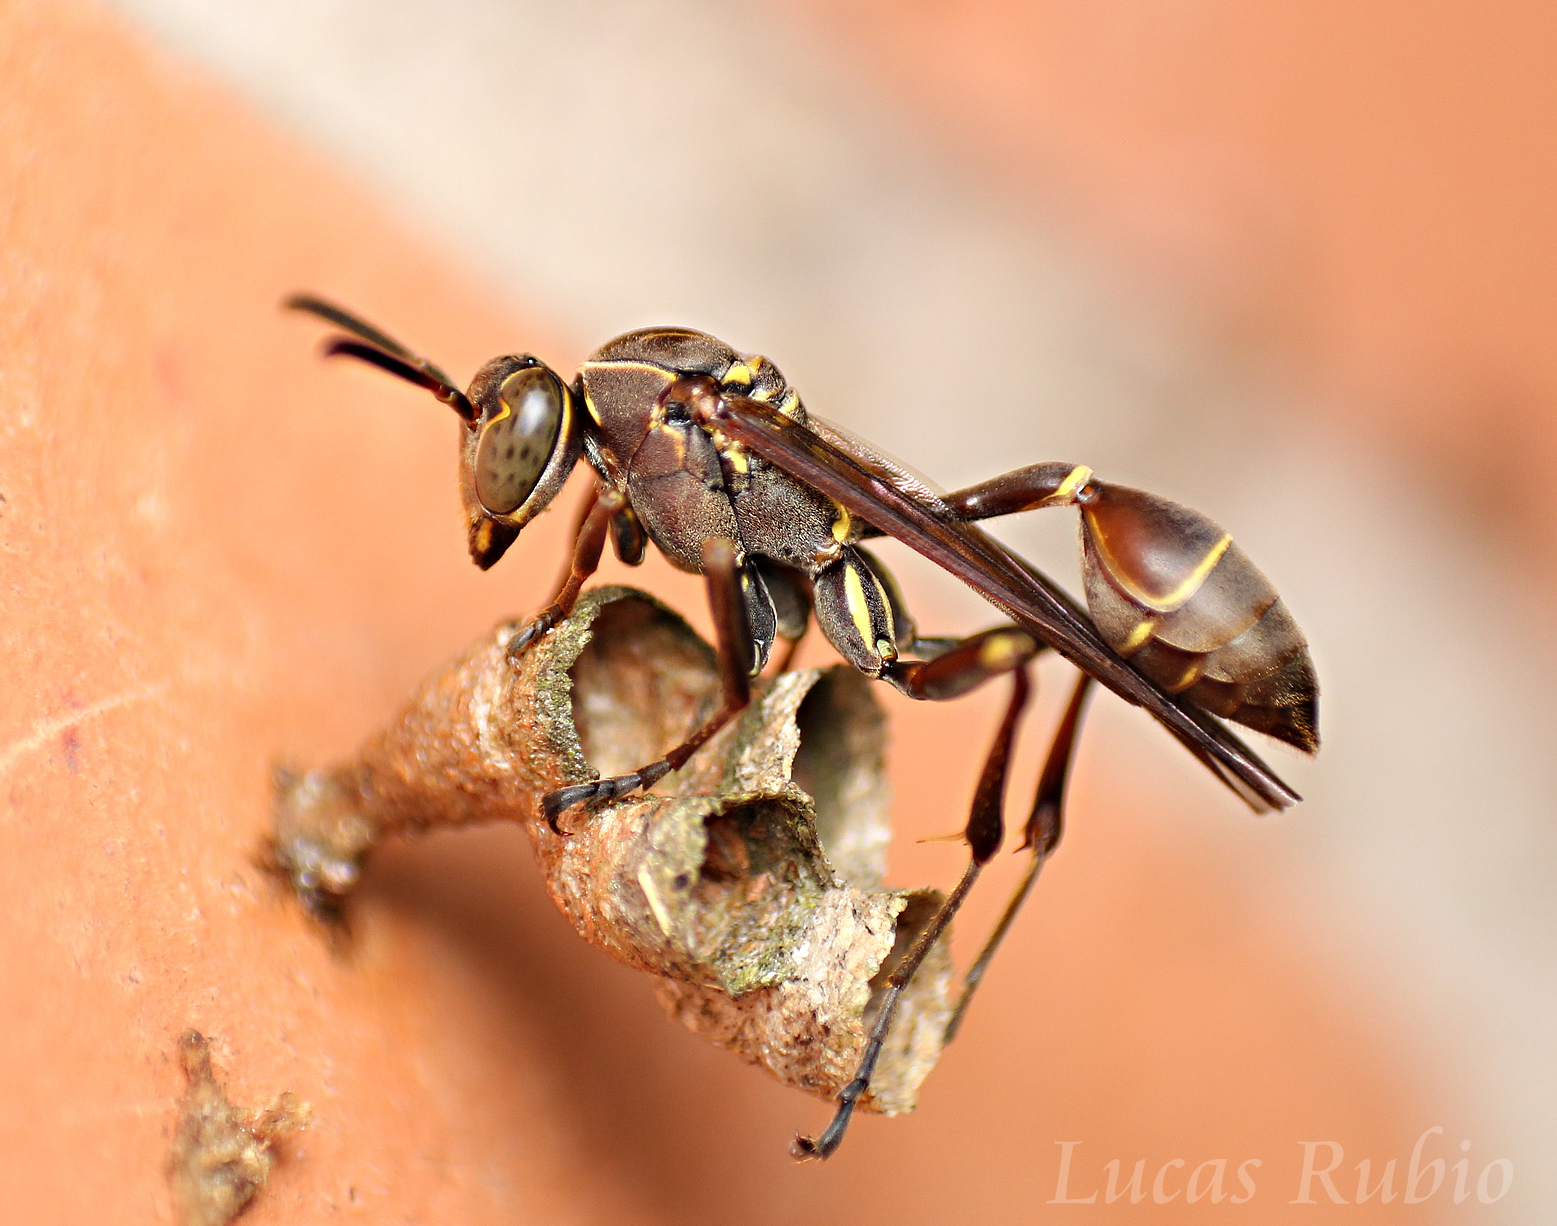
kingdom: Animalia
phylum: Arthropoda
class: Insecta
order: Hymenoptera
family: Vespidae
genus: Mischocyttarus
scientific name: Mischocyttarus wagneri
